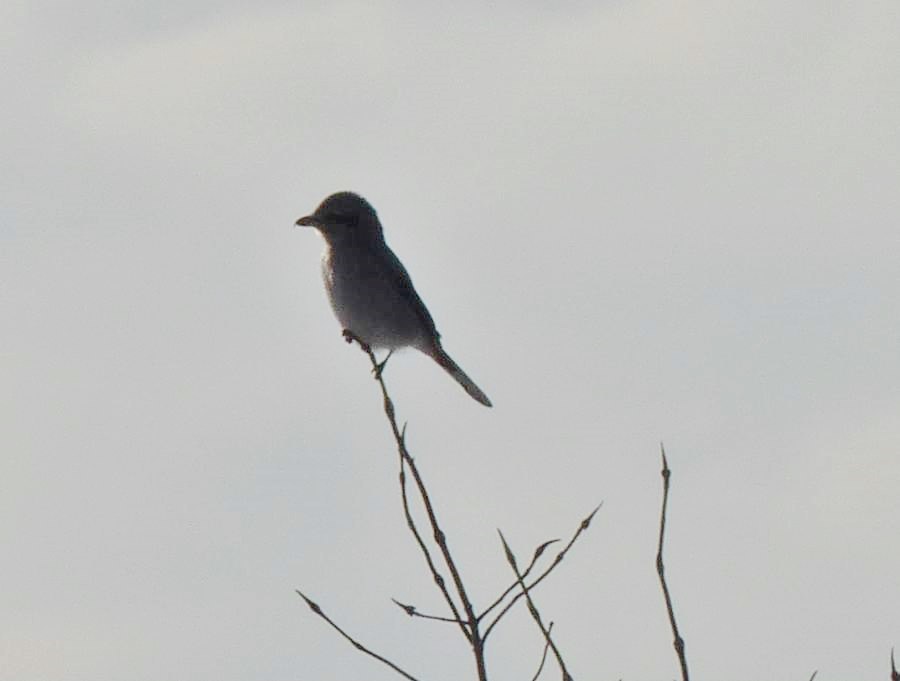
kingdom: Animalia
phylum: Chordata
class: Aves
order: Passeriformes
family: Laniidae
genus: Lanius
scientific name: Lanius borealis
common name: Northern shrike
